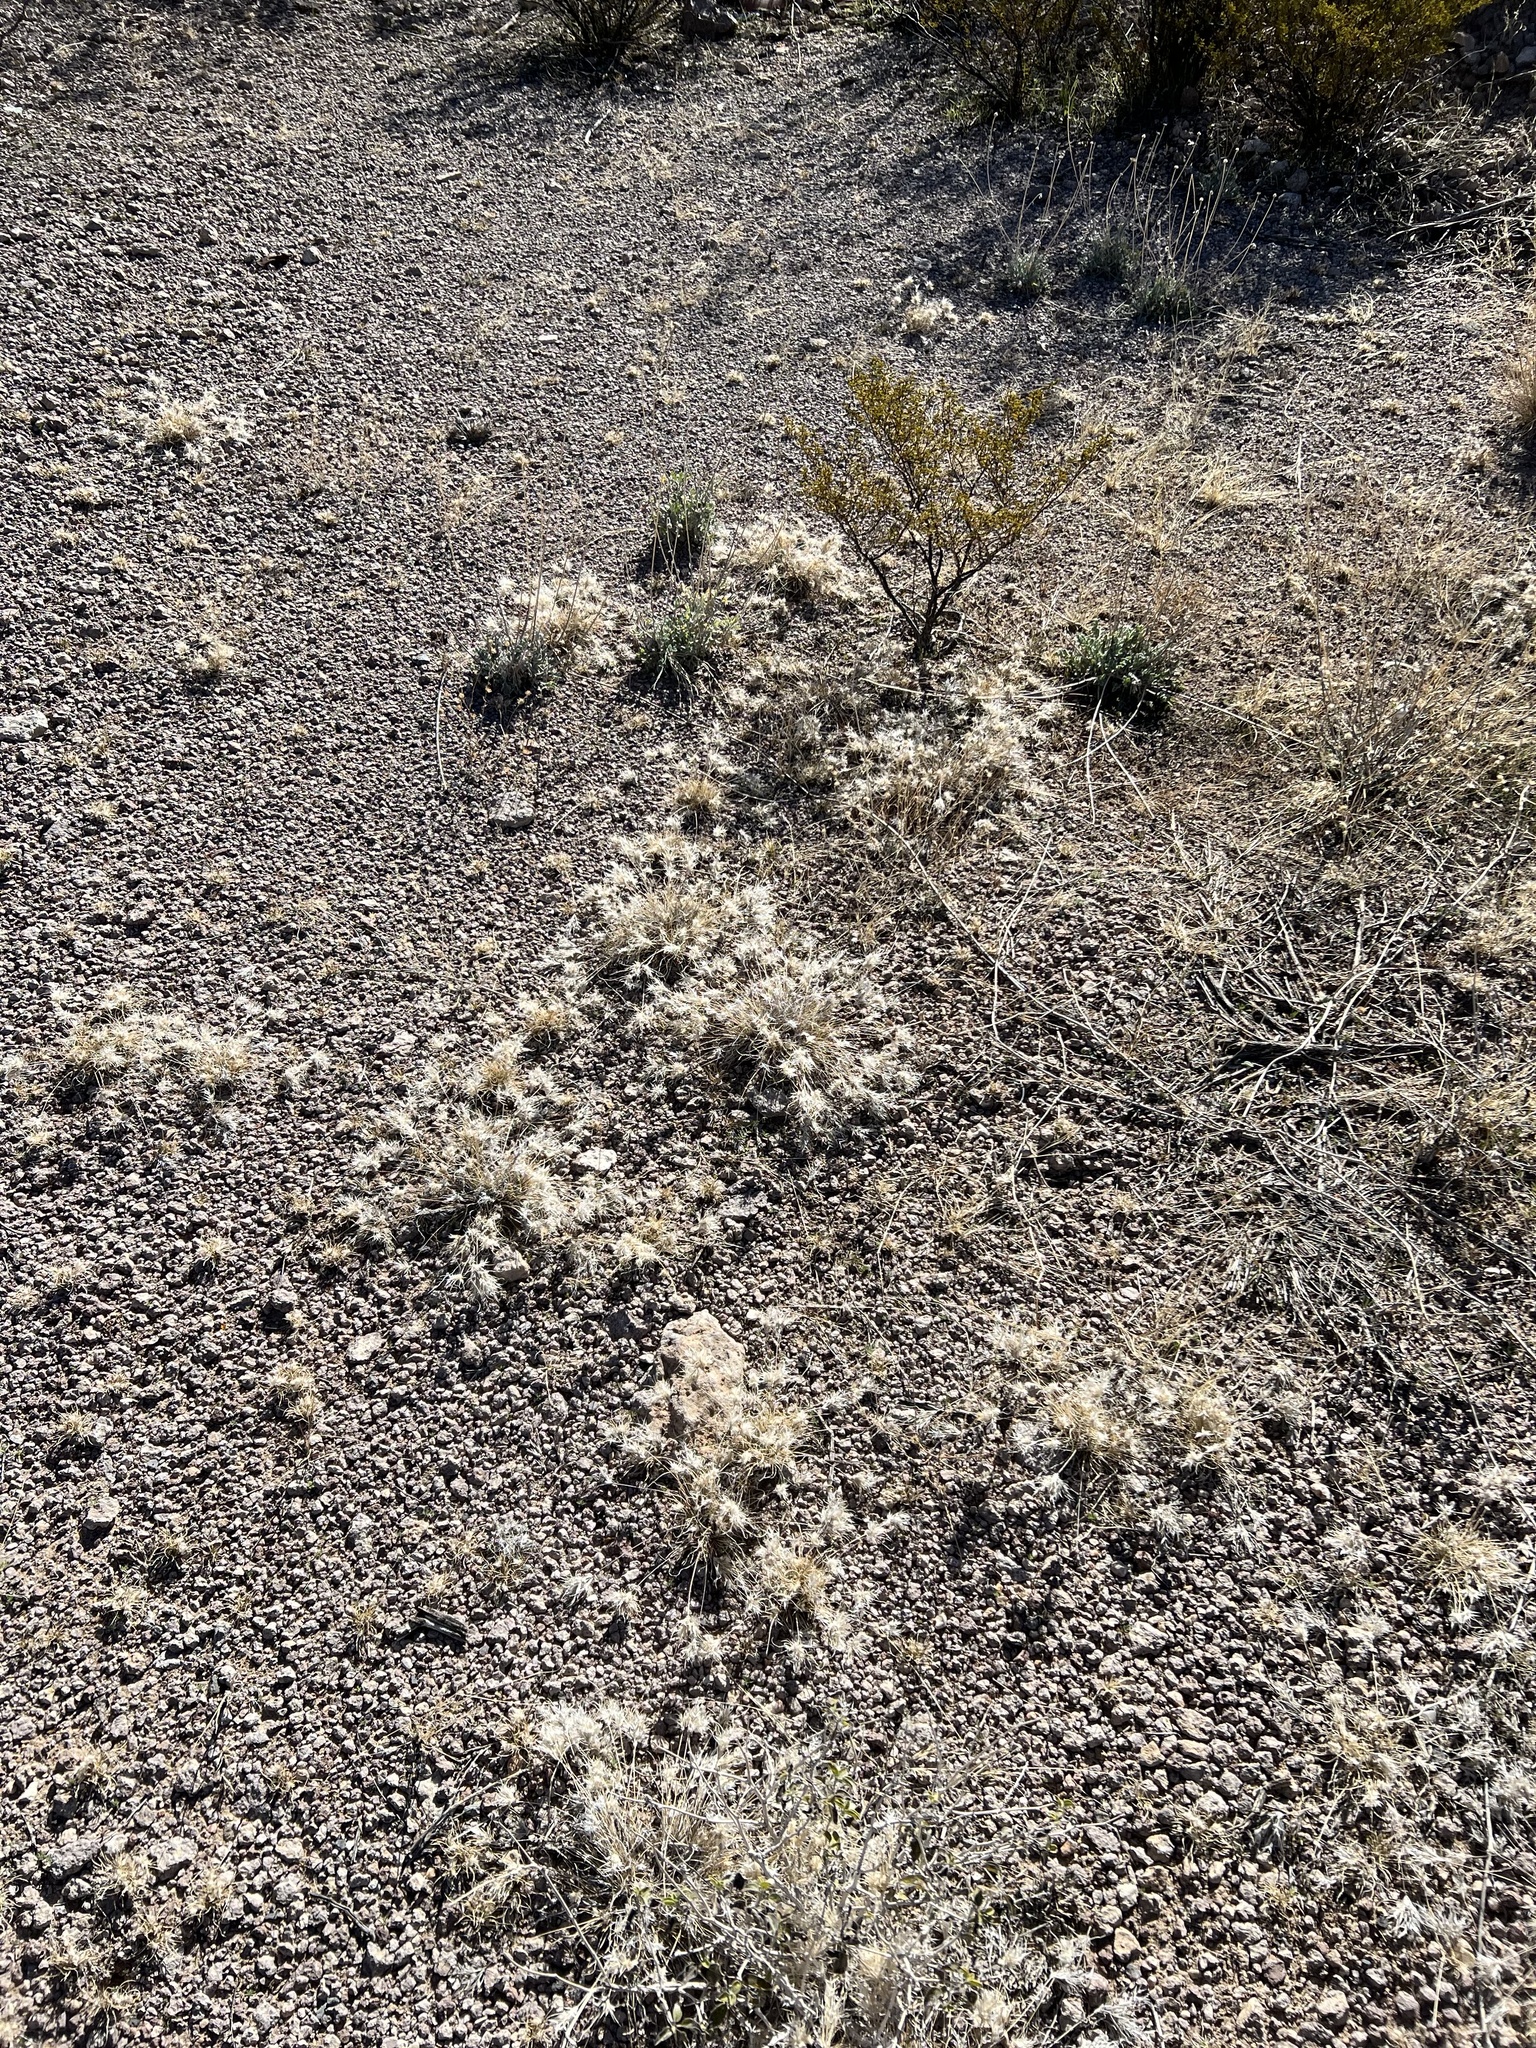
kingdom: Plantae
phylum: Tracheophyta
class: Liliopsida
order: Poales
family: Poaceae
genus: Dasyochloa
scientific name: Dasyochloa pulchella
